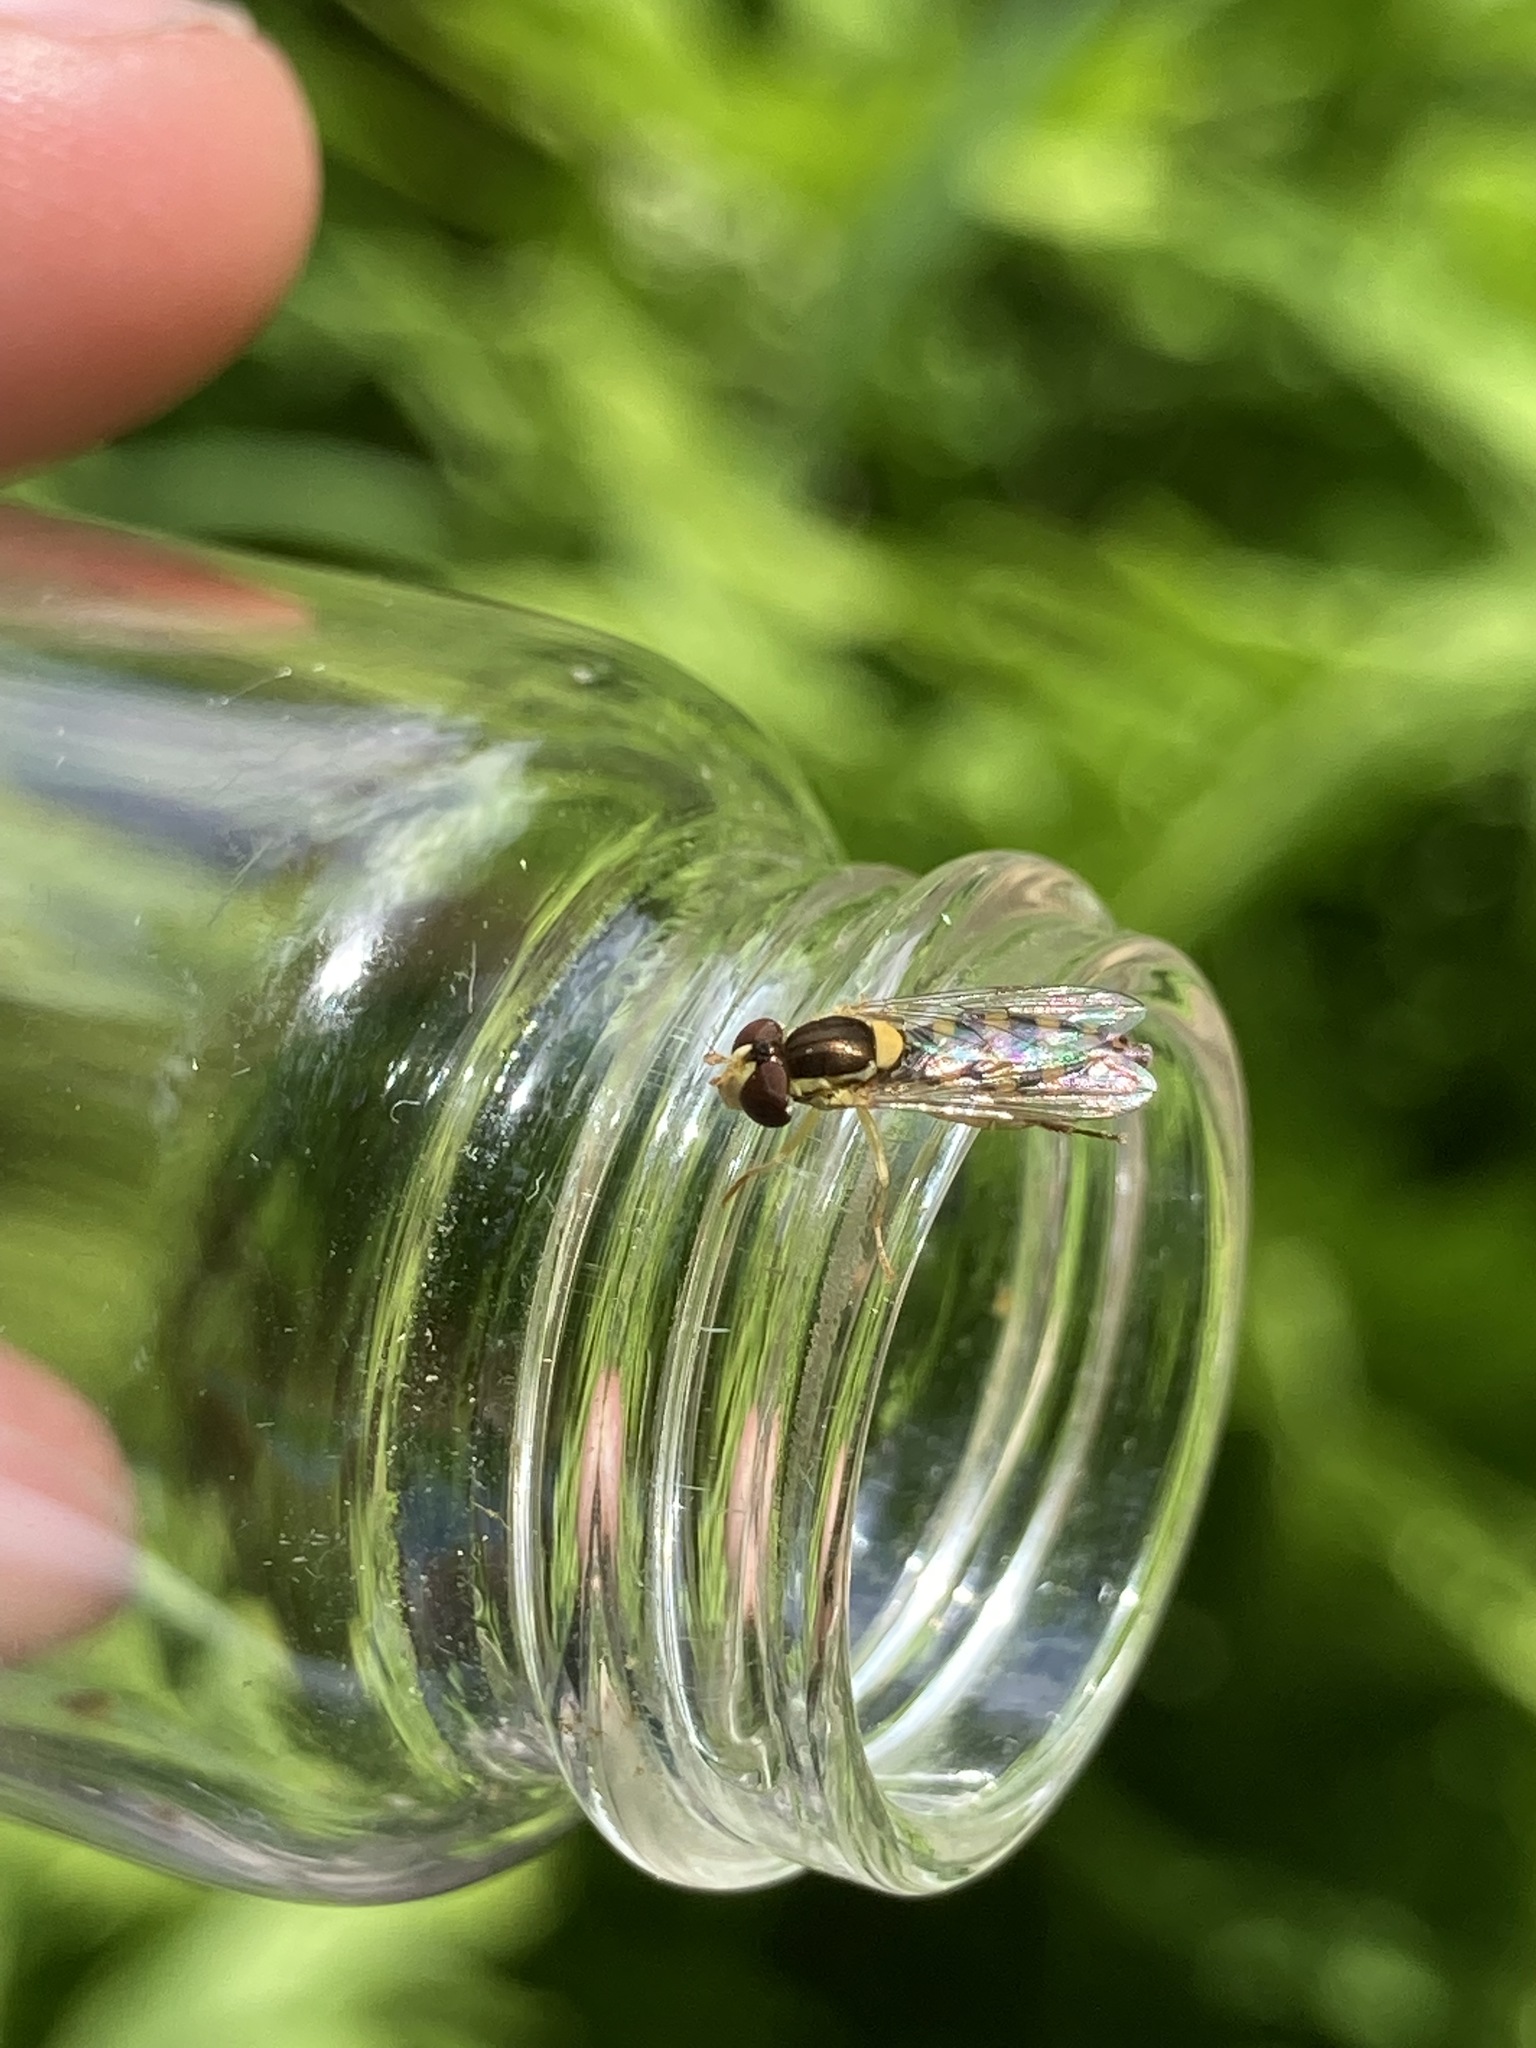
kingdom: Animalia
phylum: Arthropoda
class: Insecta
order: Diptera
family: Syrphidae
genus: Sphaerophoria
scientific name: Sphaerophoria
